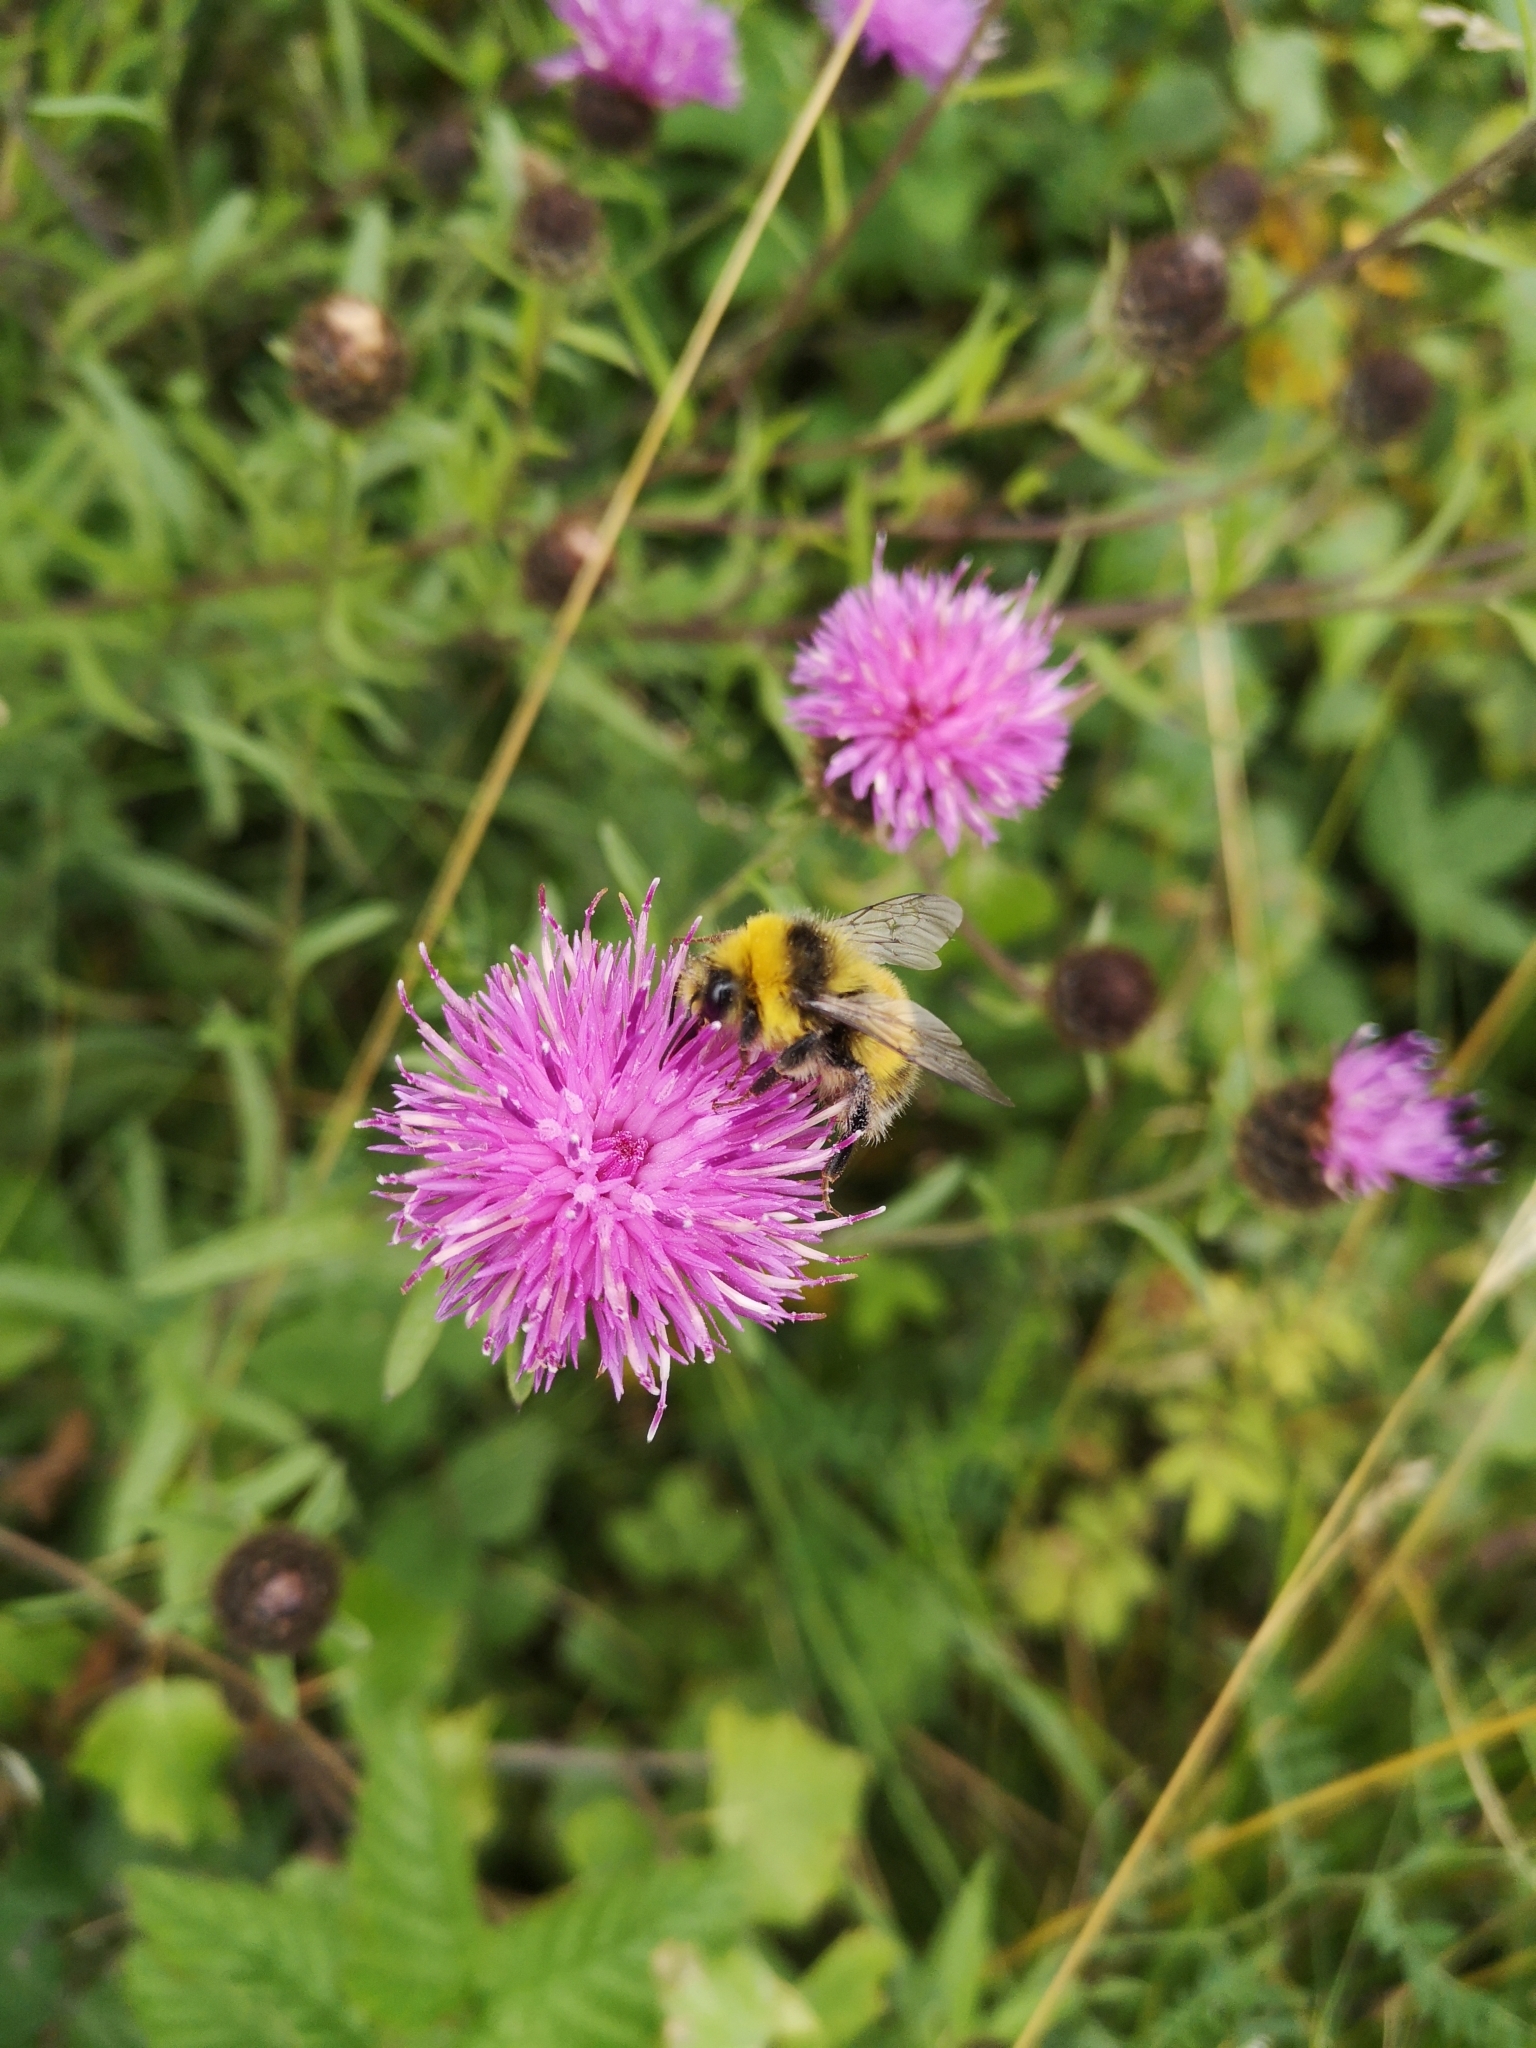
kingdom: Animalia
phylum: Arthropoda
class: Insecta
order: Hymenoptera
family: Apidae
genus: Bombus
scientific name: Bombus lucorum
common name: White-tailed bumblebee
